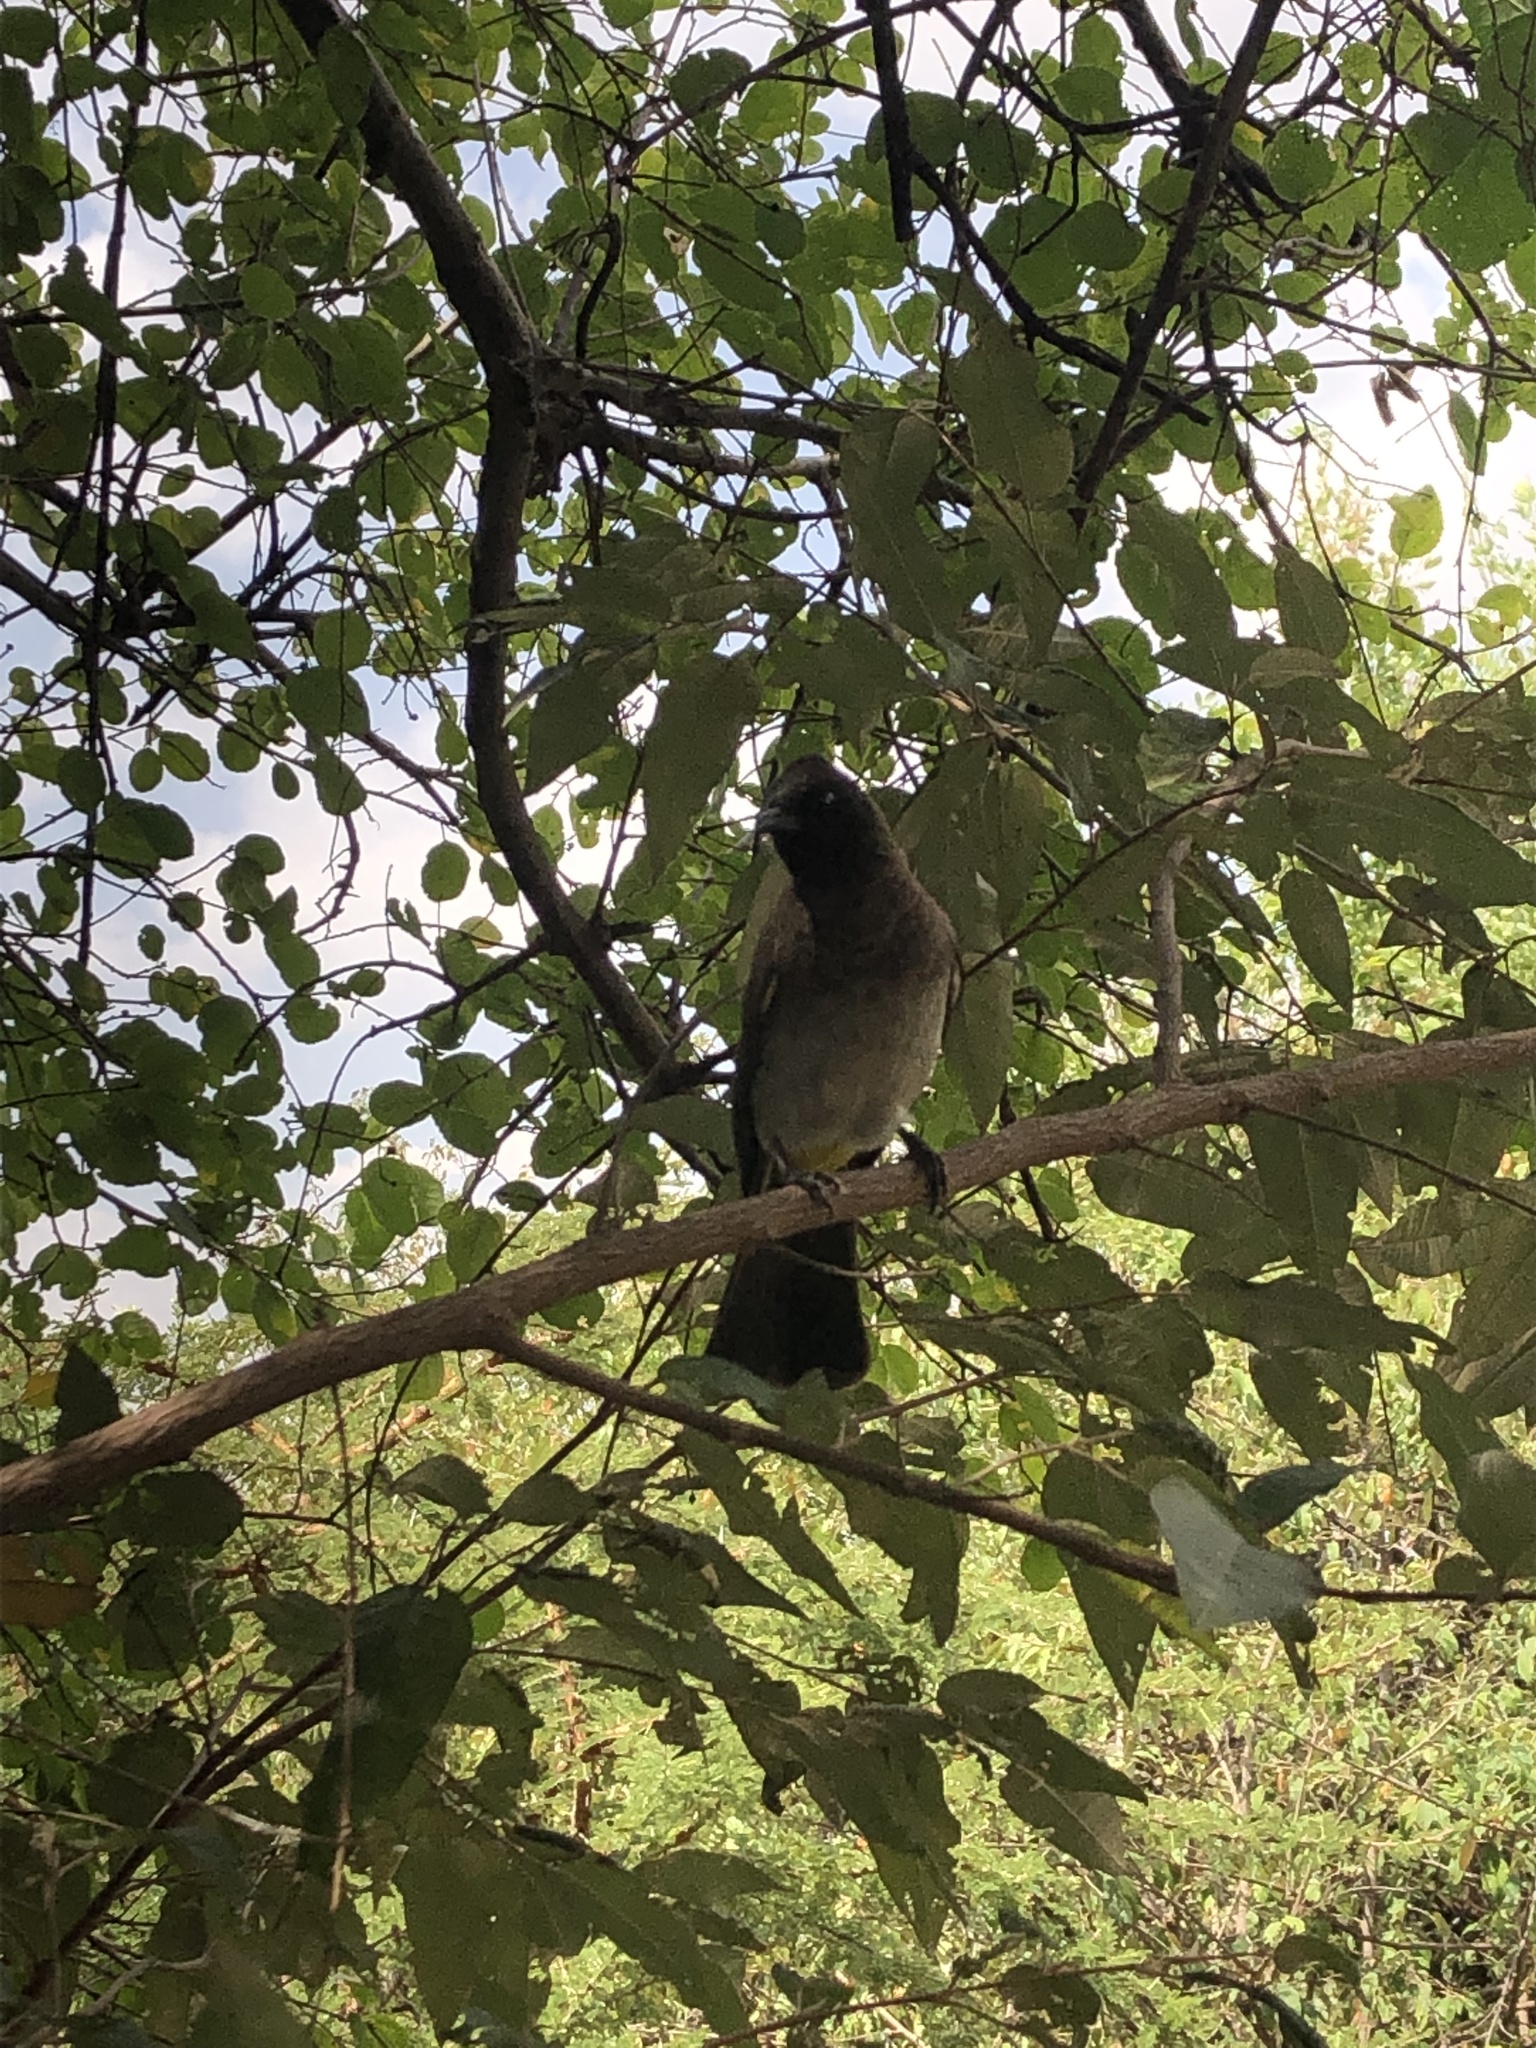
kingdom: Animalia
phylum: Chordata
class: Aves
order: Passeriformes
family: Pycnonotidae
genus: Pycnonotus
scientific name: Pycnonotus barbatus
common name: Common bulbul
